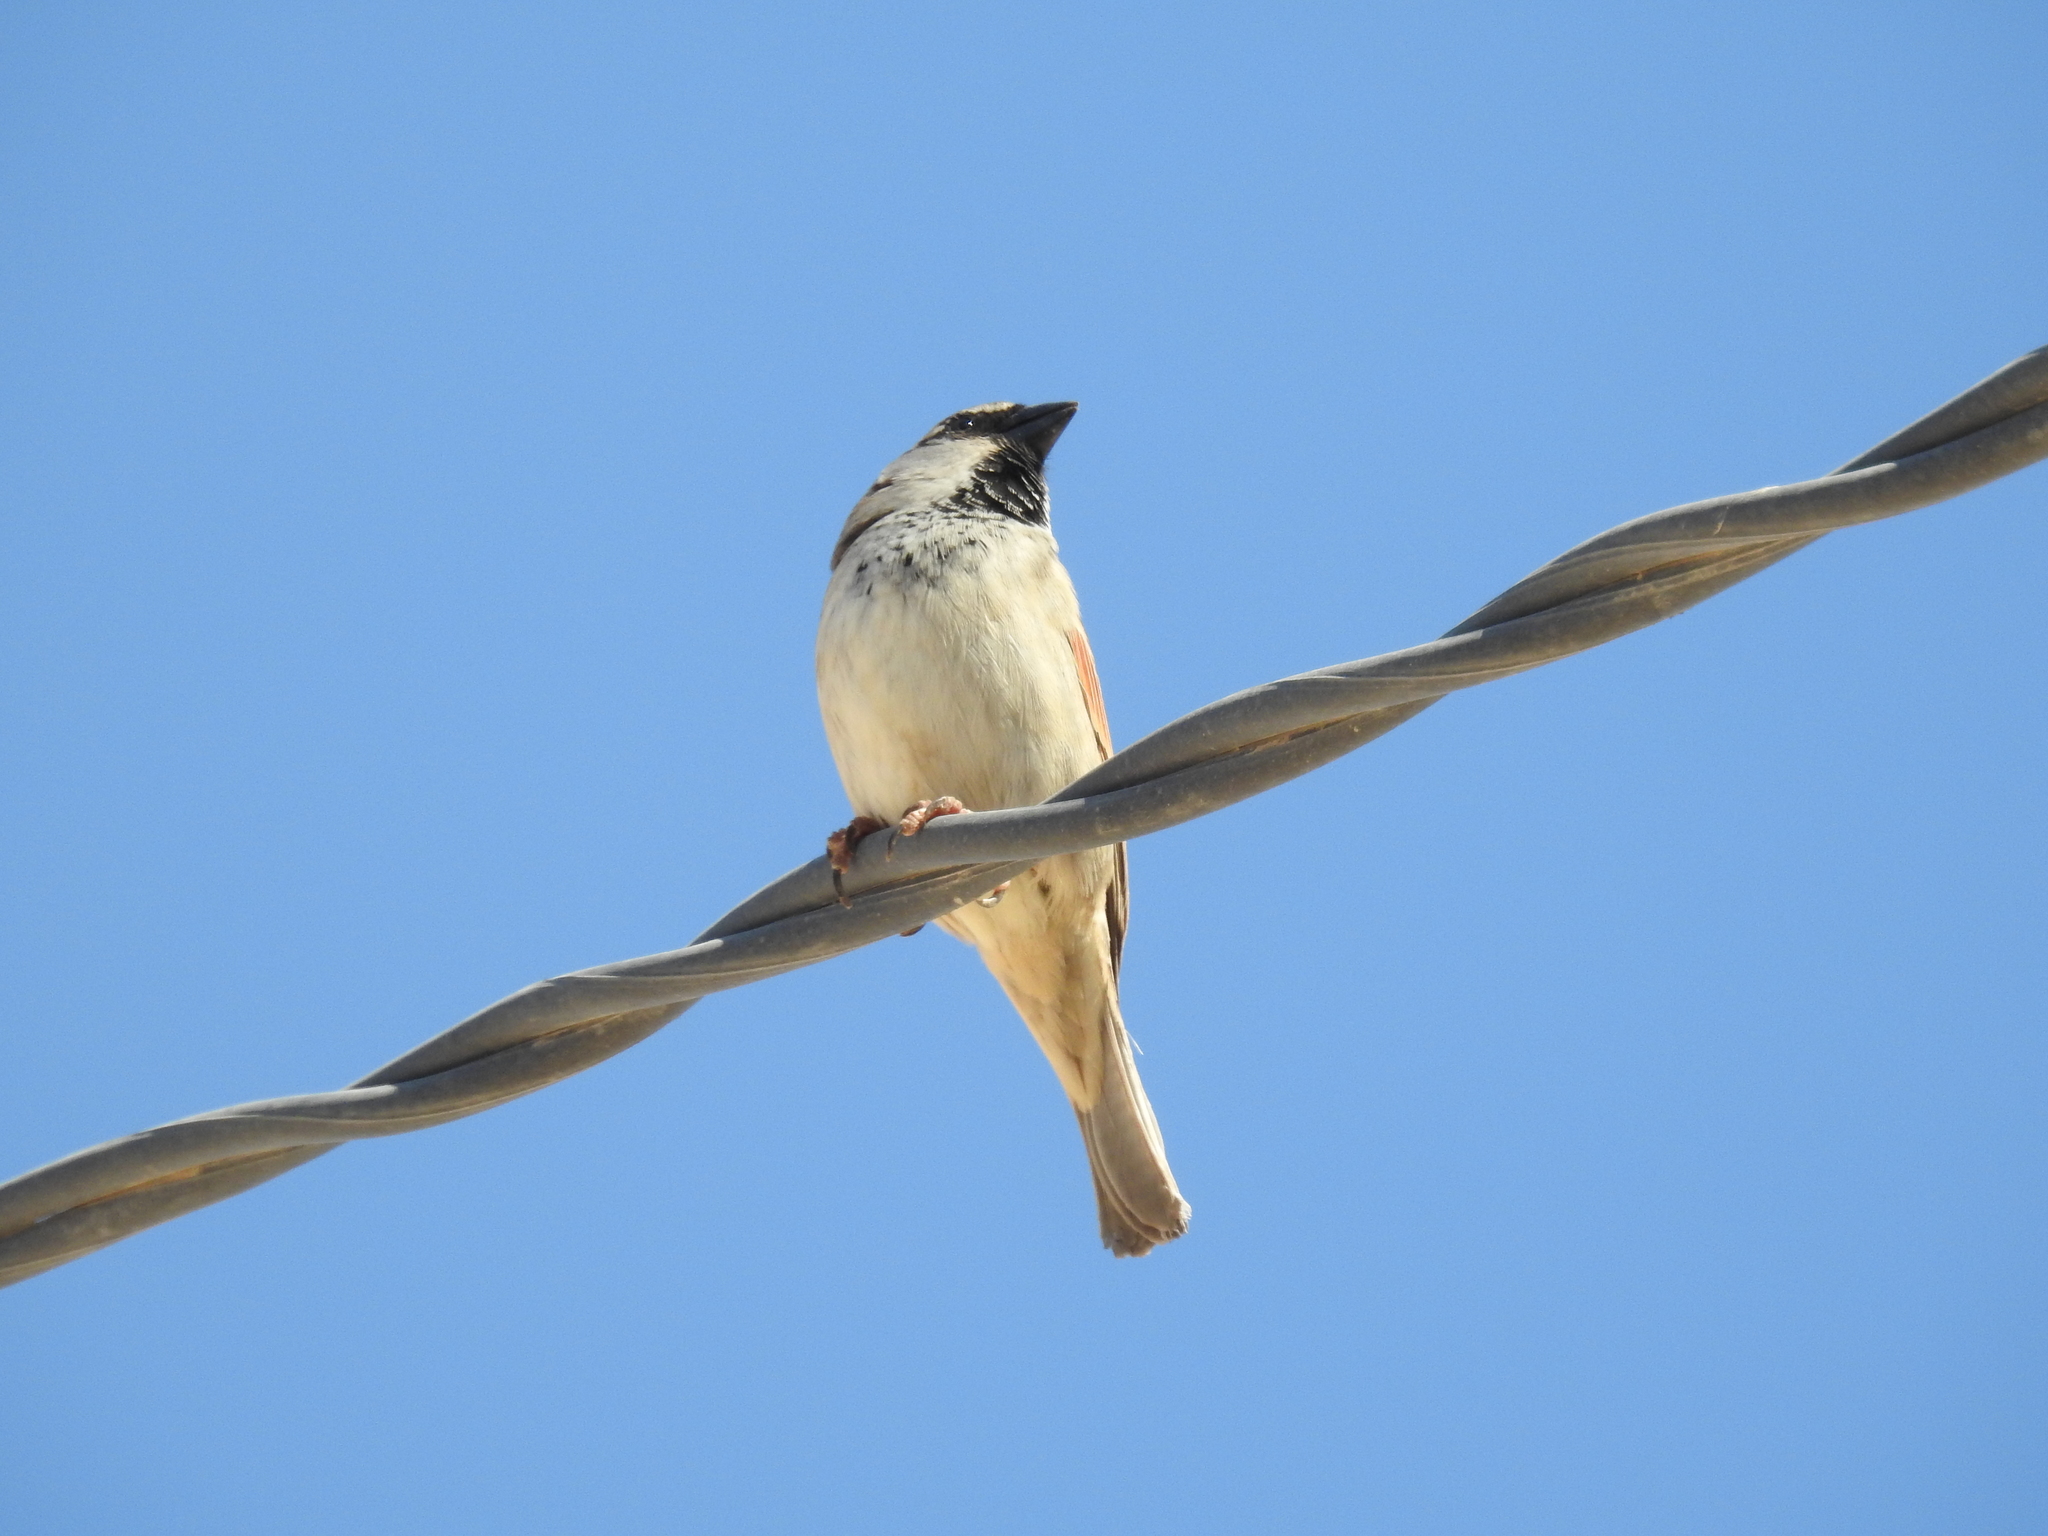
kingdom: Animalia
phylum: Chordata
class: Aves
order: Passeriformes
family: Passeridae
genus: Passer
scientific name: Passer domesticus
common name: House sparrow
